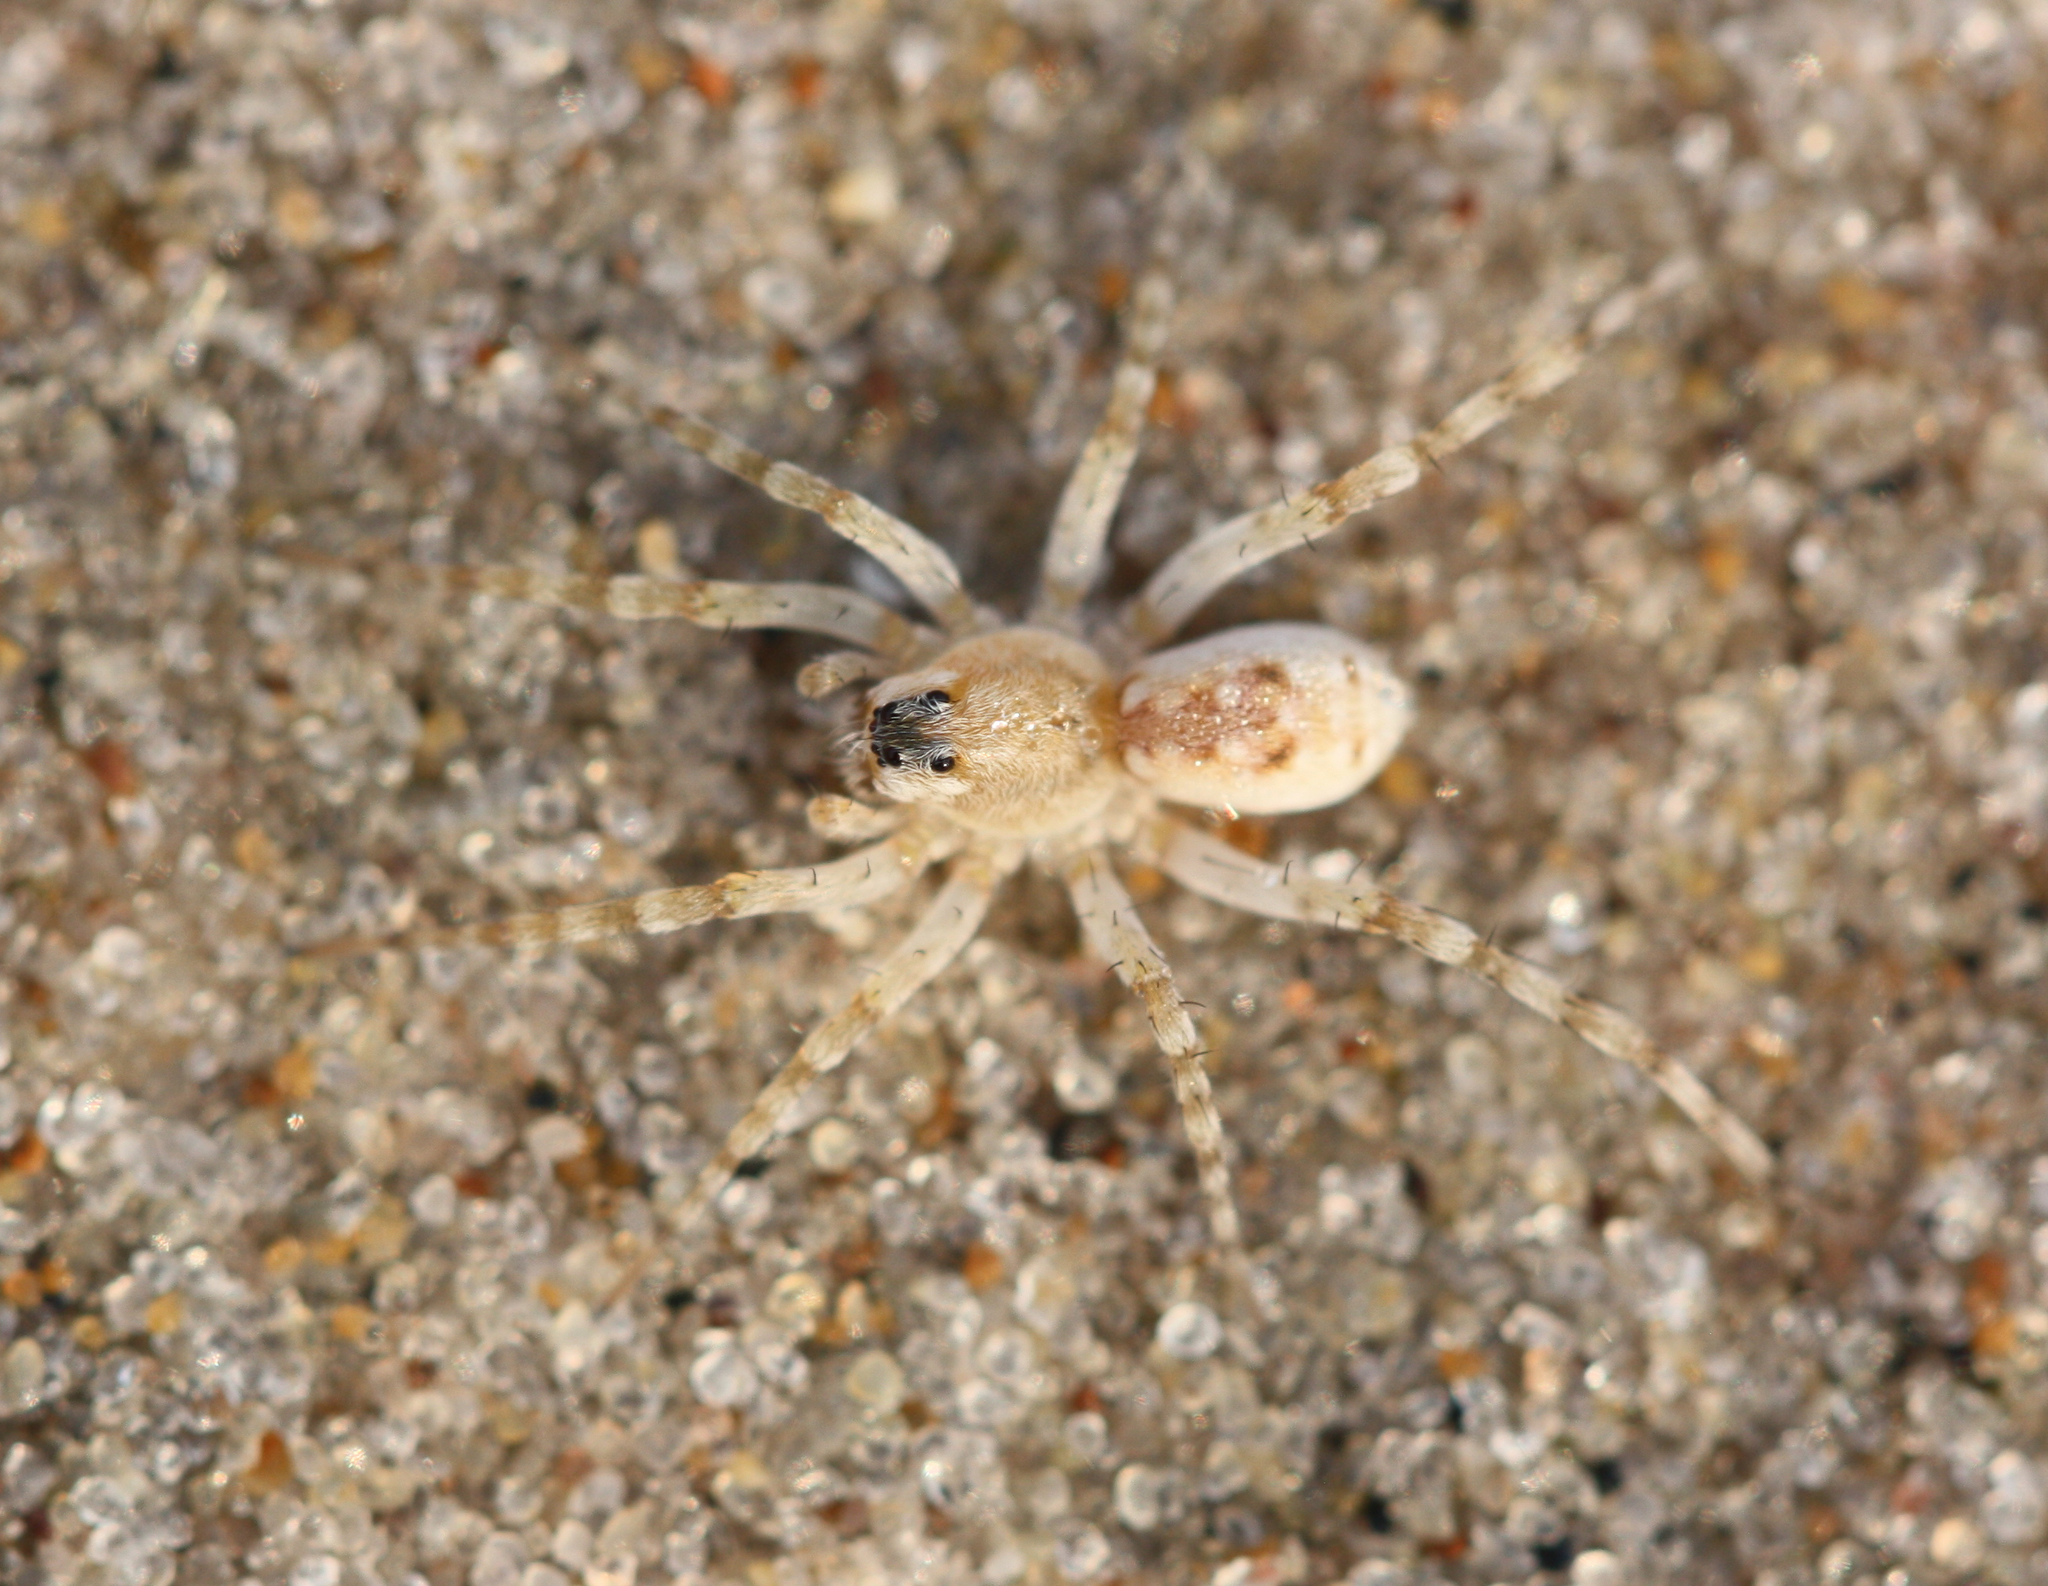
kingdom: Animalia
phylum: Arthropoda
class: Arachnida
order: Araneae
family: Lycosidae
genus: Arctosa
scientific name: Arctosa littoralis
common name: Wolf spiders
